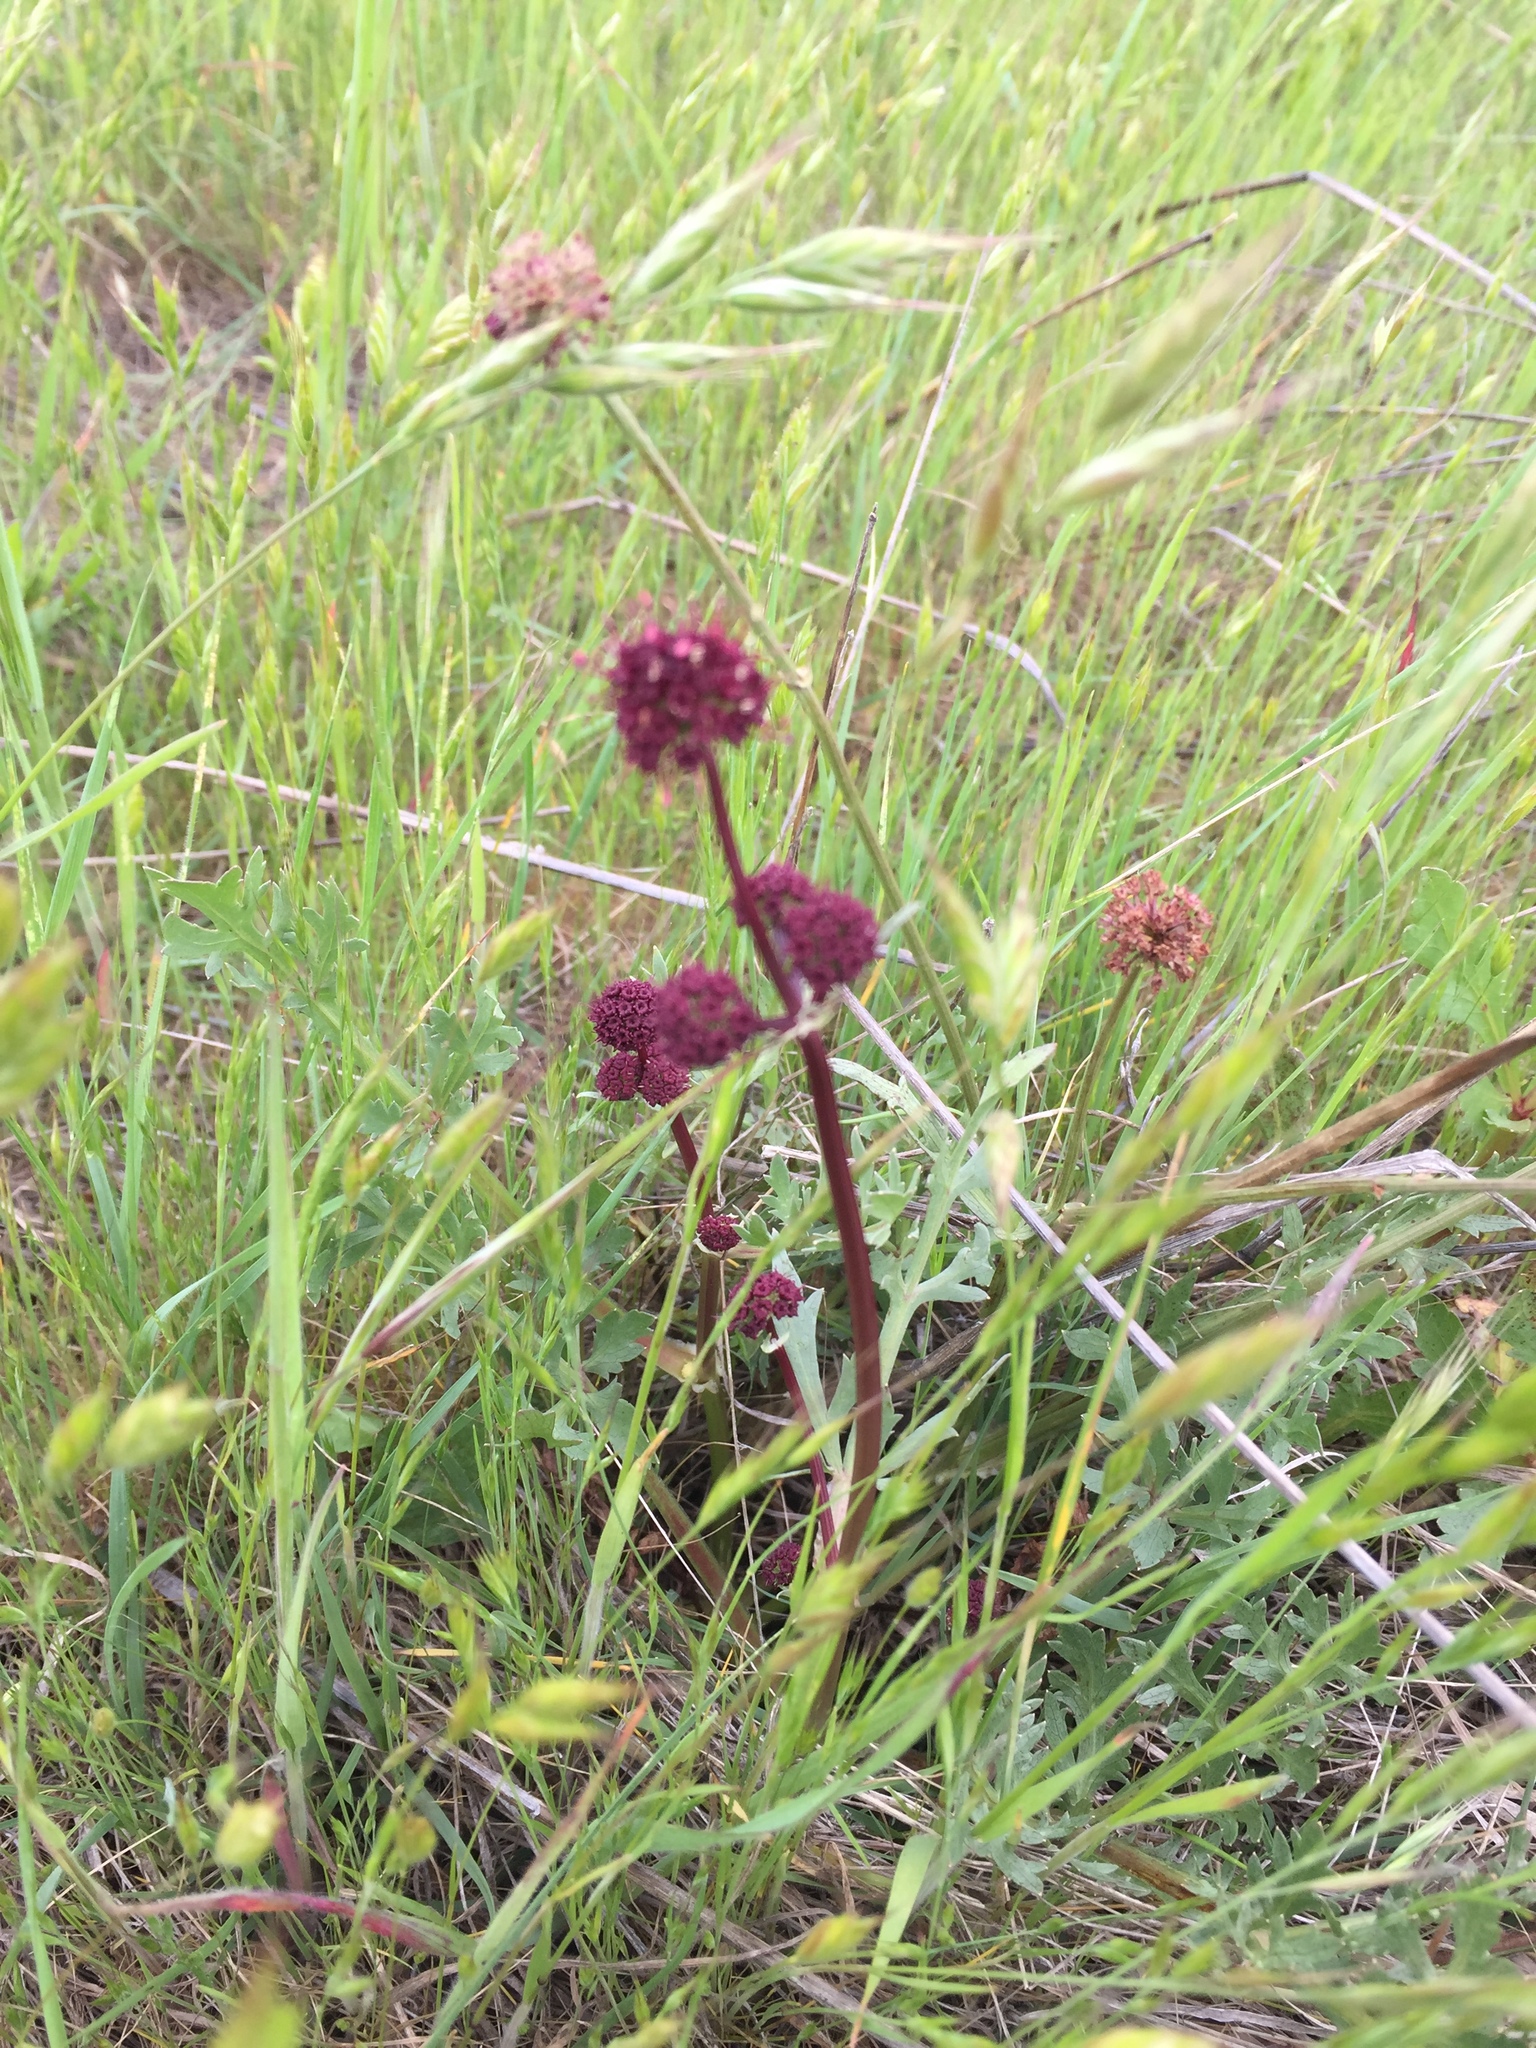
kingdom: Plantae
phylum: Tracheophyta
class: Magnoliopsida
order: Apiales
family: Apiaceae
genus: Sanicula
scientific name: Sanicula bipinnatifida
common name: Shoe-buttons
